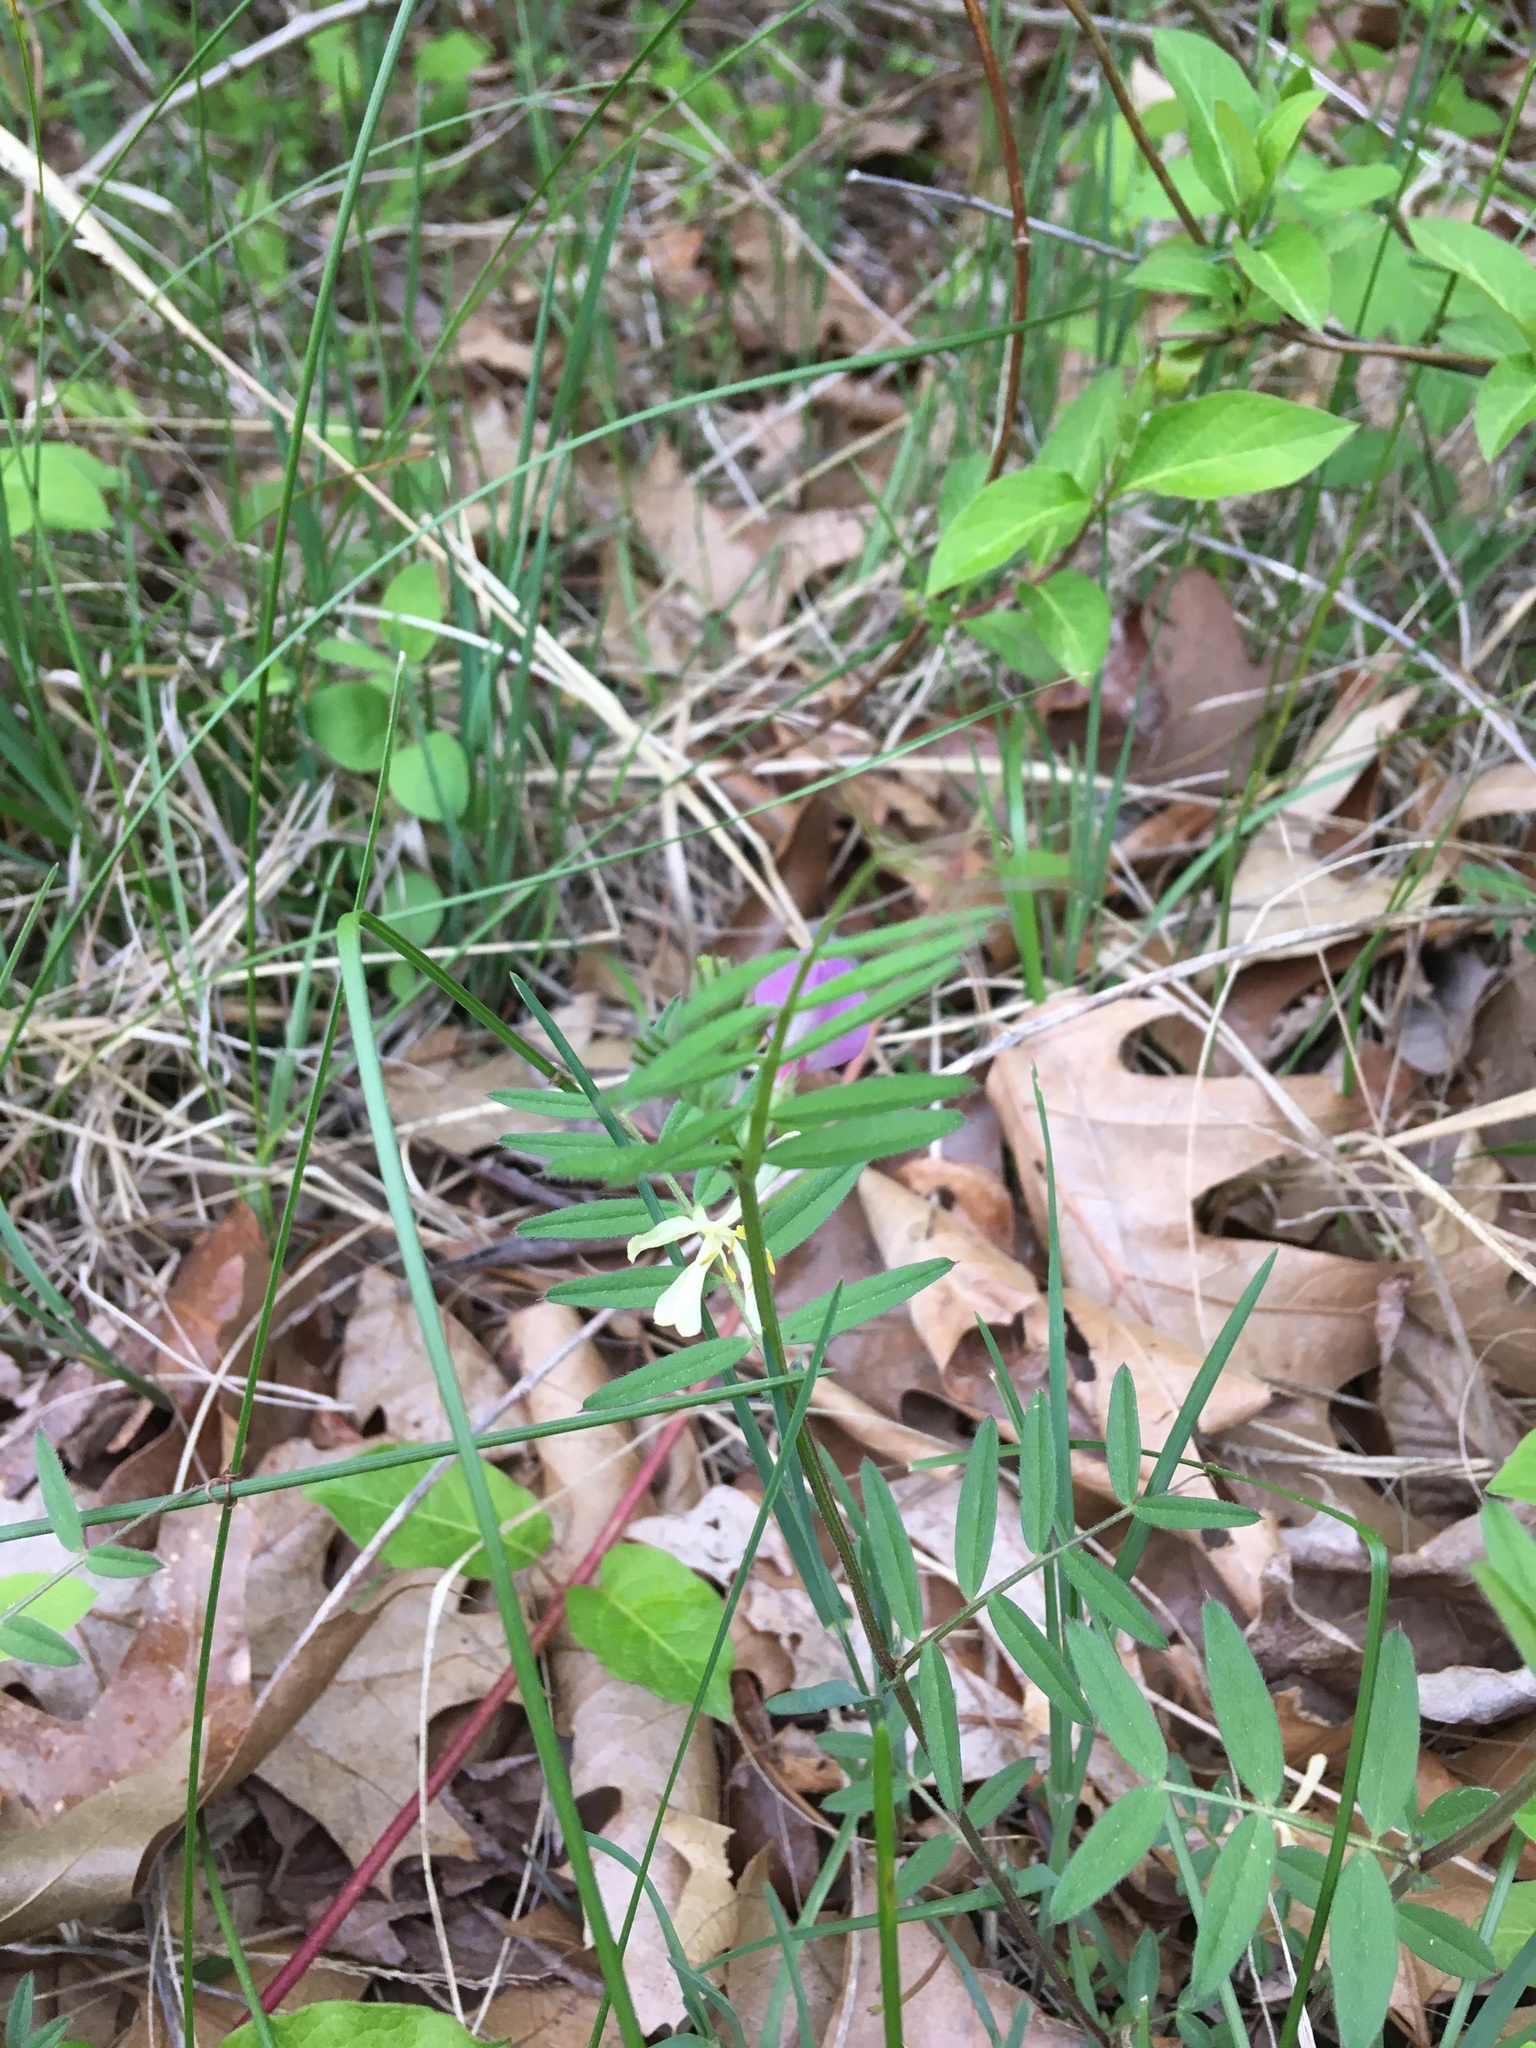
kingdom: Plantae
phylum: Tracheophyta
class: Magnoliopsida
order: Fabales
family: Fabaceae
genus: Vicia
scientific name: Vicia sativa
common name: Garden vetch
